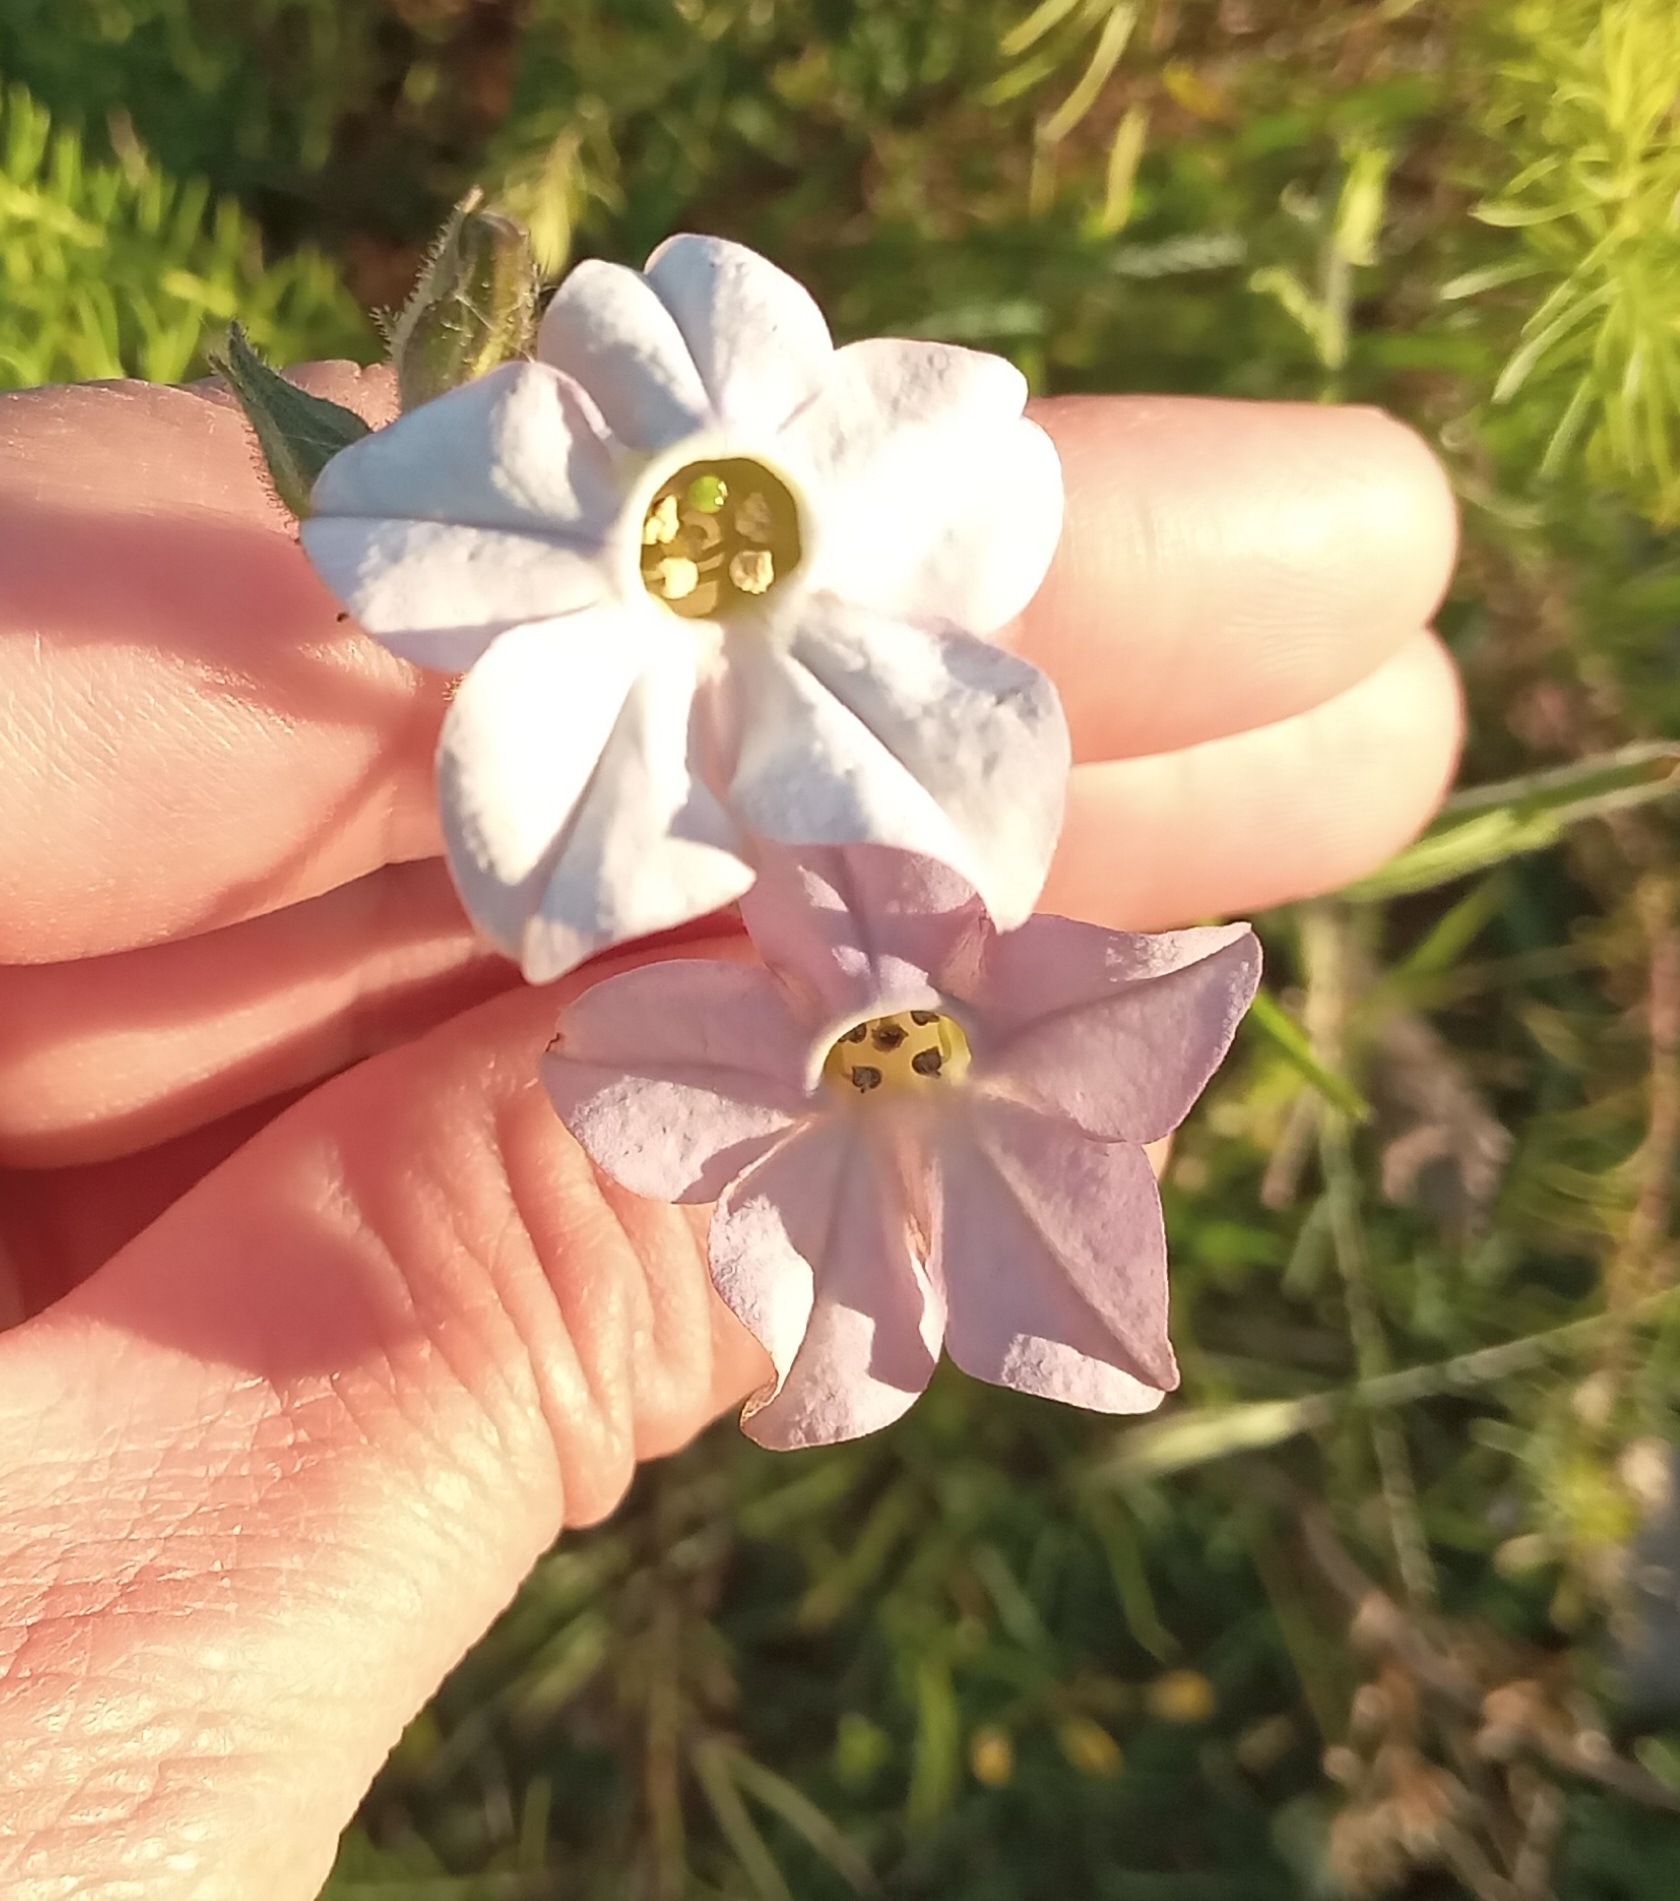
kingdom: Plantae
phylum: Tracheophyta
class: Magnoliopsida
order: Solanales
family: Solanaceae
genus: Nicotiana
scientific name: Nicotiana bonariensis
